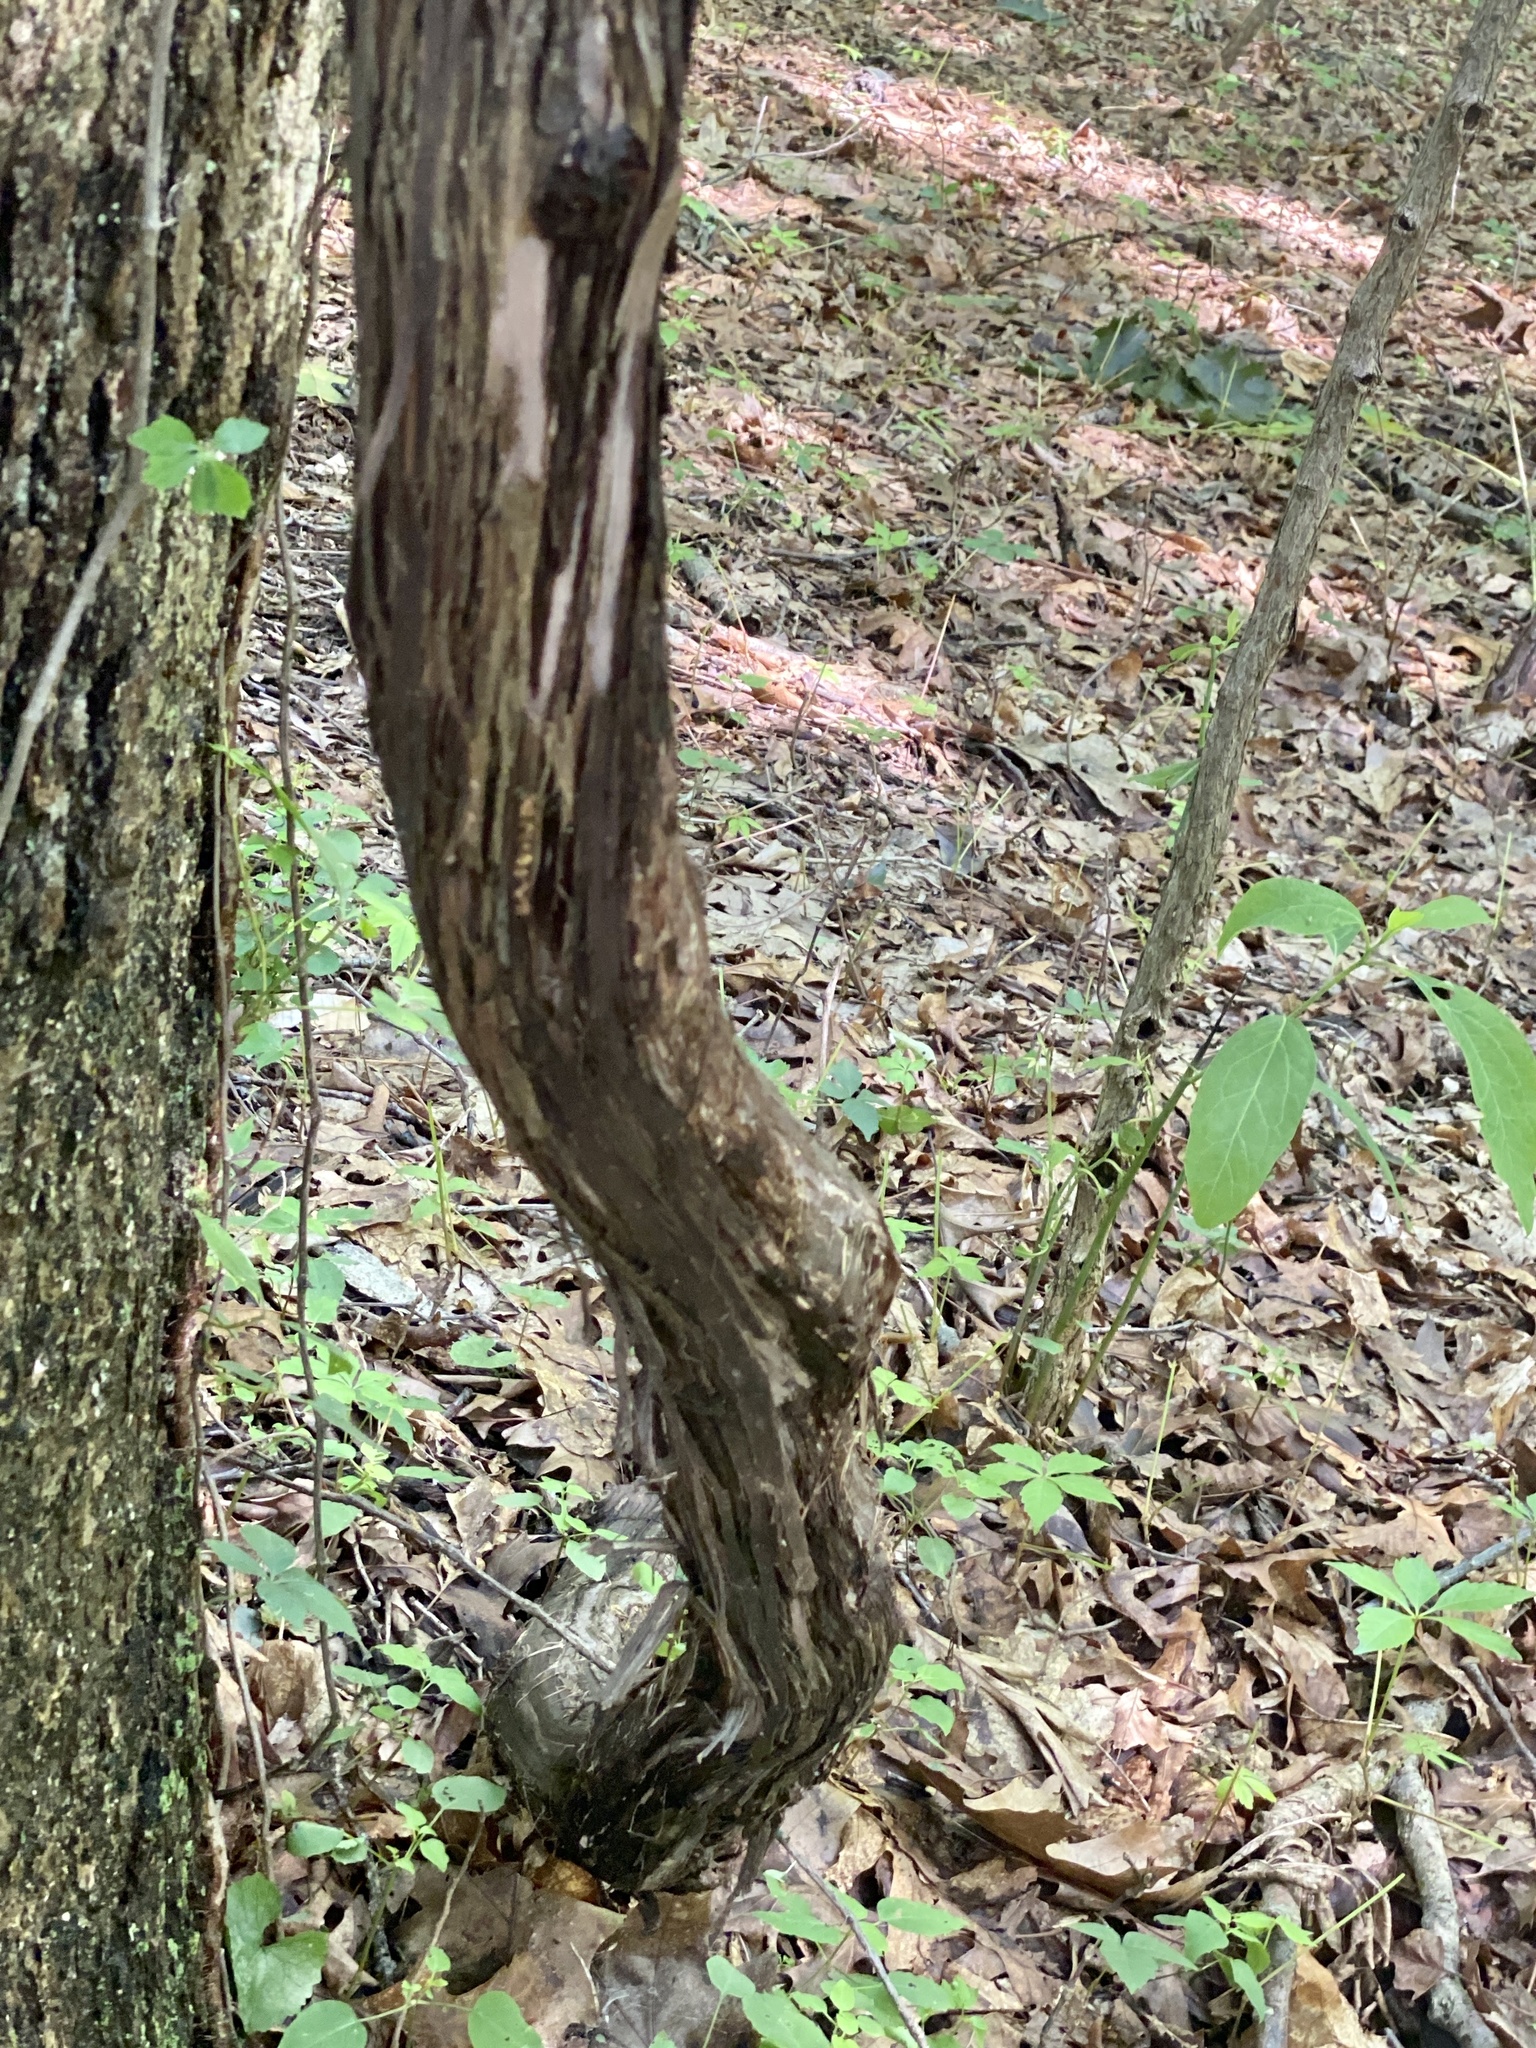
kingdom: Plantae
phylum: Tracheophyta
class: Magnoliopsida
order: Vitales
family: Vitaceae
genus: Vitis
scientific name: Vitis
